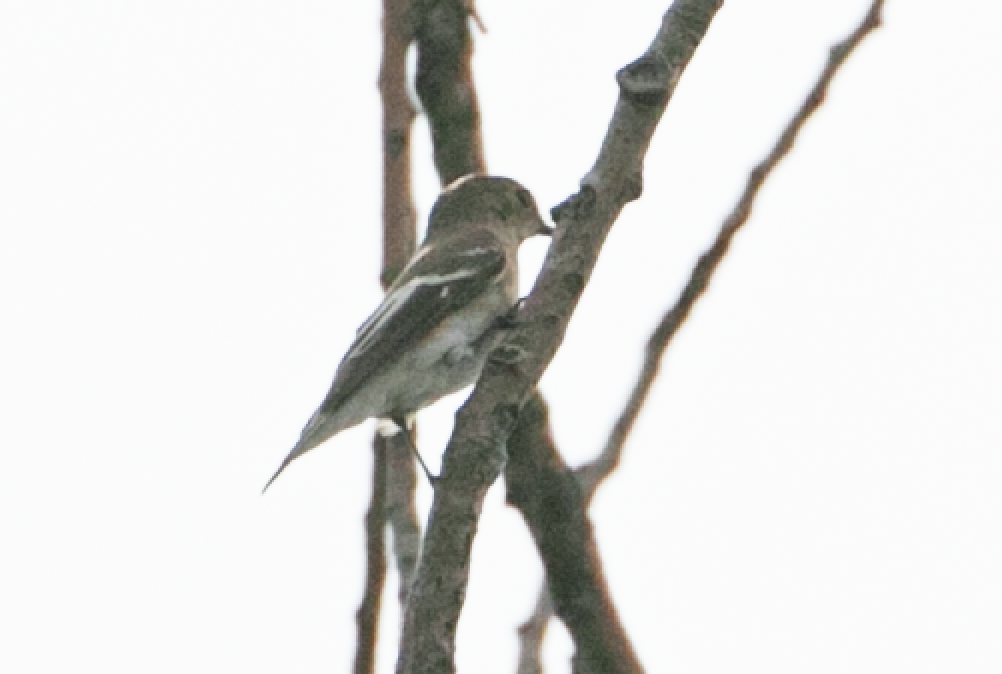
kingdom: Animalia
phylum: Chordata
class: Aves
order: Passeriformes
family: Muscicapidae
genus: Ficedula
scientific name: Ficedula hypoleuca
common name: European pied flycatcher
